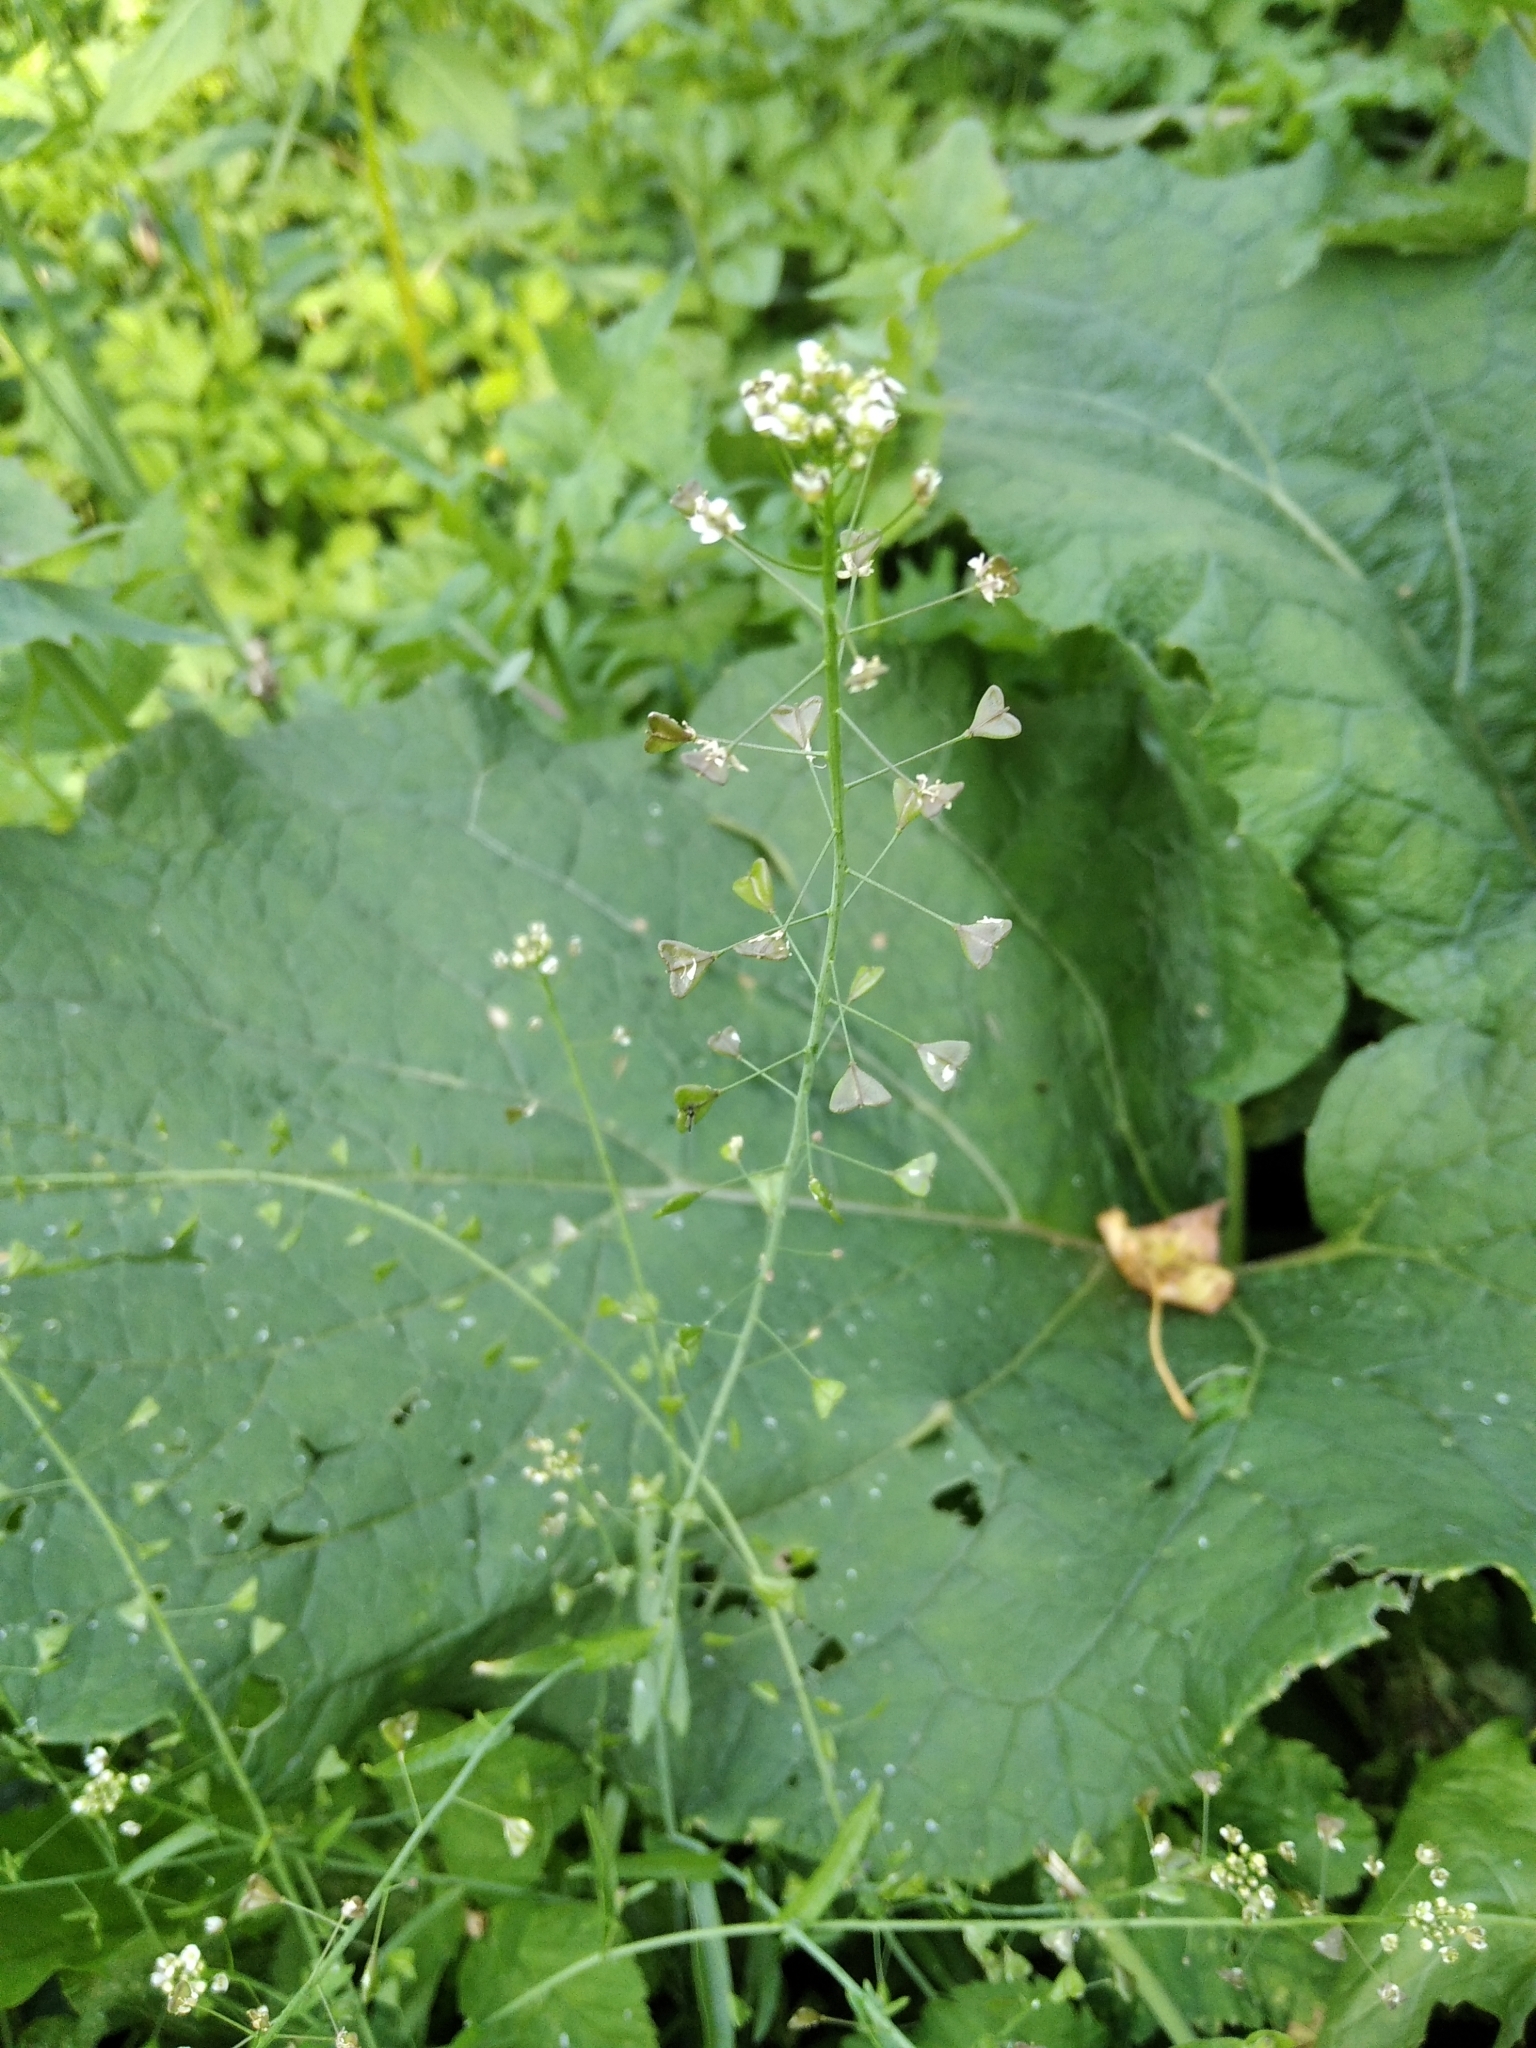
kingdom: Plantae
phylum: Tracheophyta
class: Magnoliopsida
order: Brassicales
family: Brassicaceae
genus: Capsella
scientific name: Capsella bursa-pastoris
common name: Shepherd's purse
